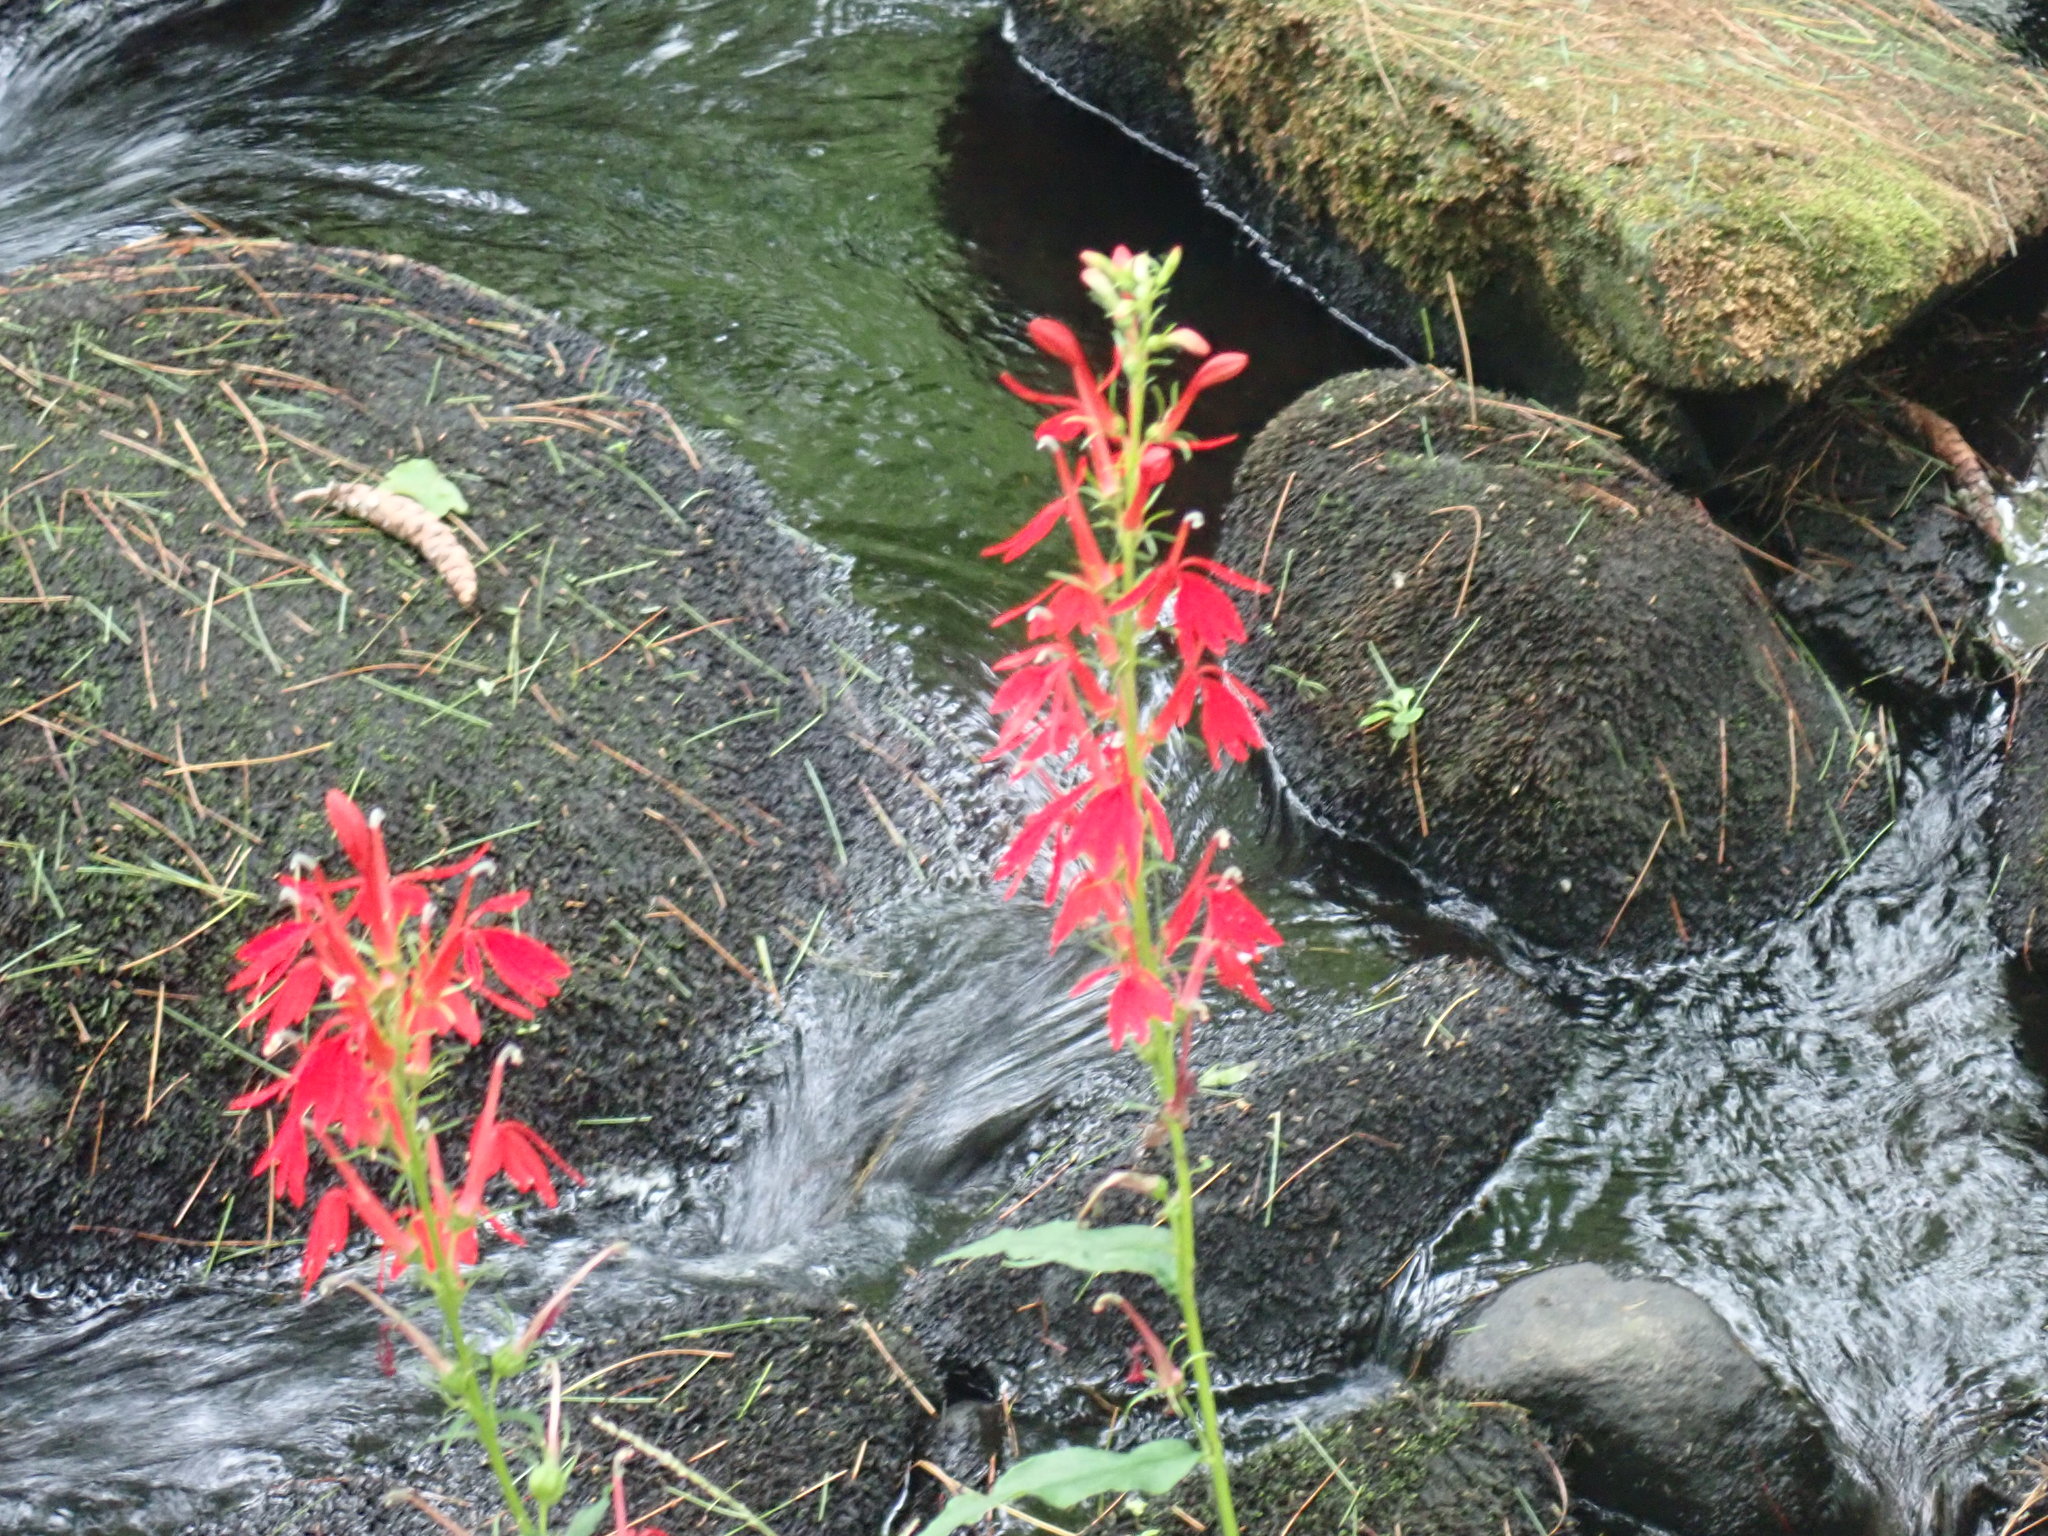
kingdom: Plantae
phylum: Tracheophyta
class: Magnoliopsida
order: Asterales
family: Campanulaceae
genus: Lobelia
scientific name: Lobelia cardinalis
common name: Cardinal flower
